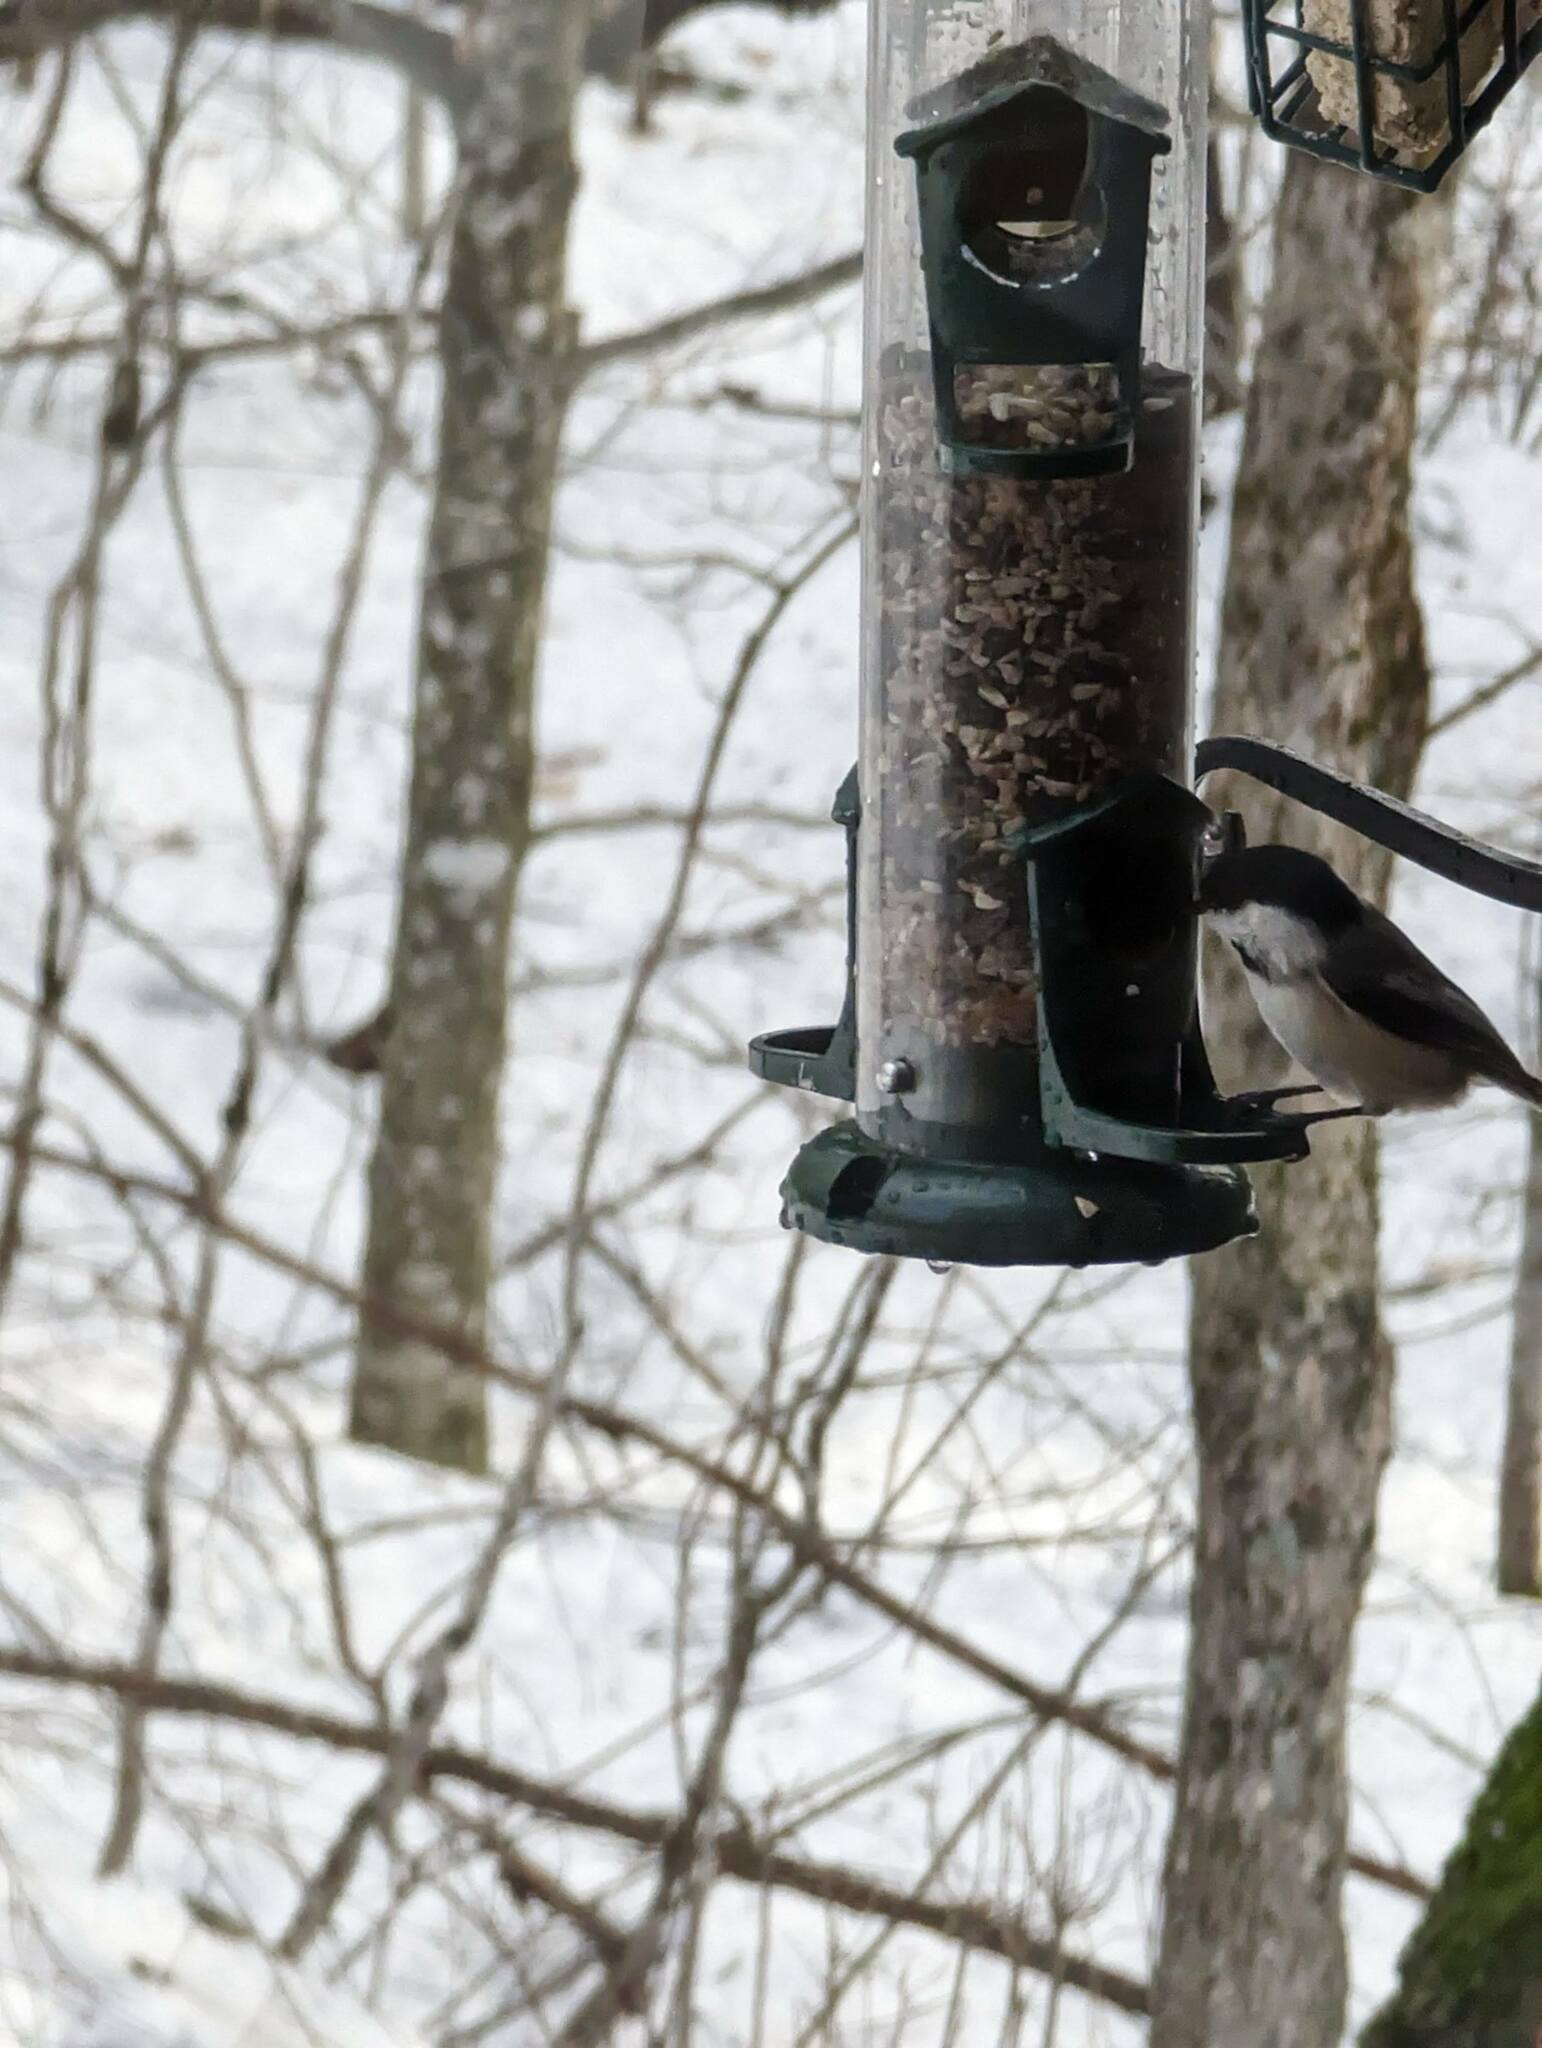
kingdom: Animalia
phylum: Chordata
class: Aves
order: Passeriformes
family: Paridae
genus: Poecile
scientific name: Poecile atricapillus
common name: Black-capped chickadee
